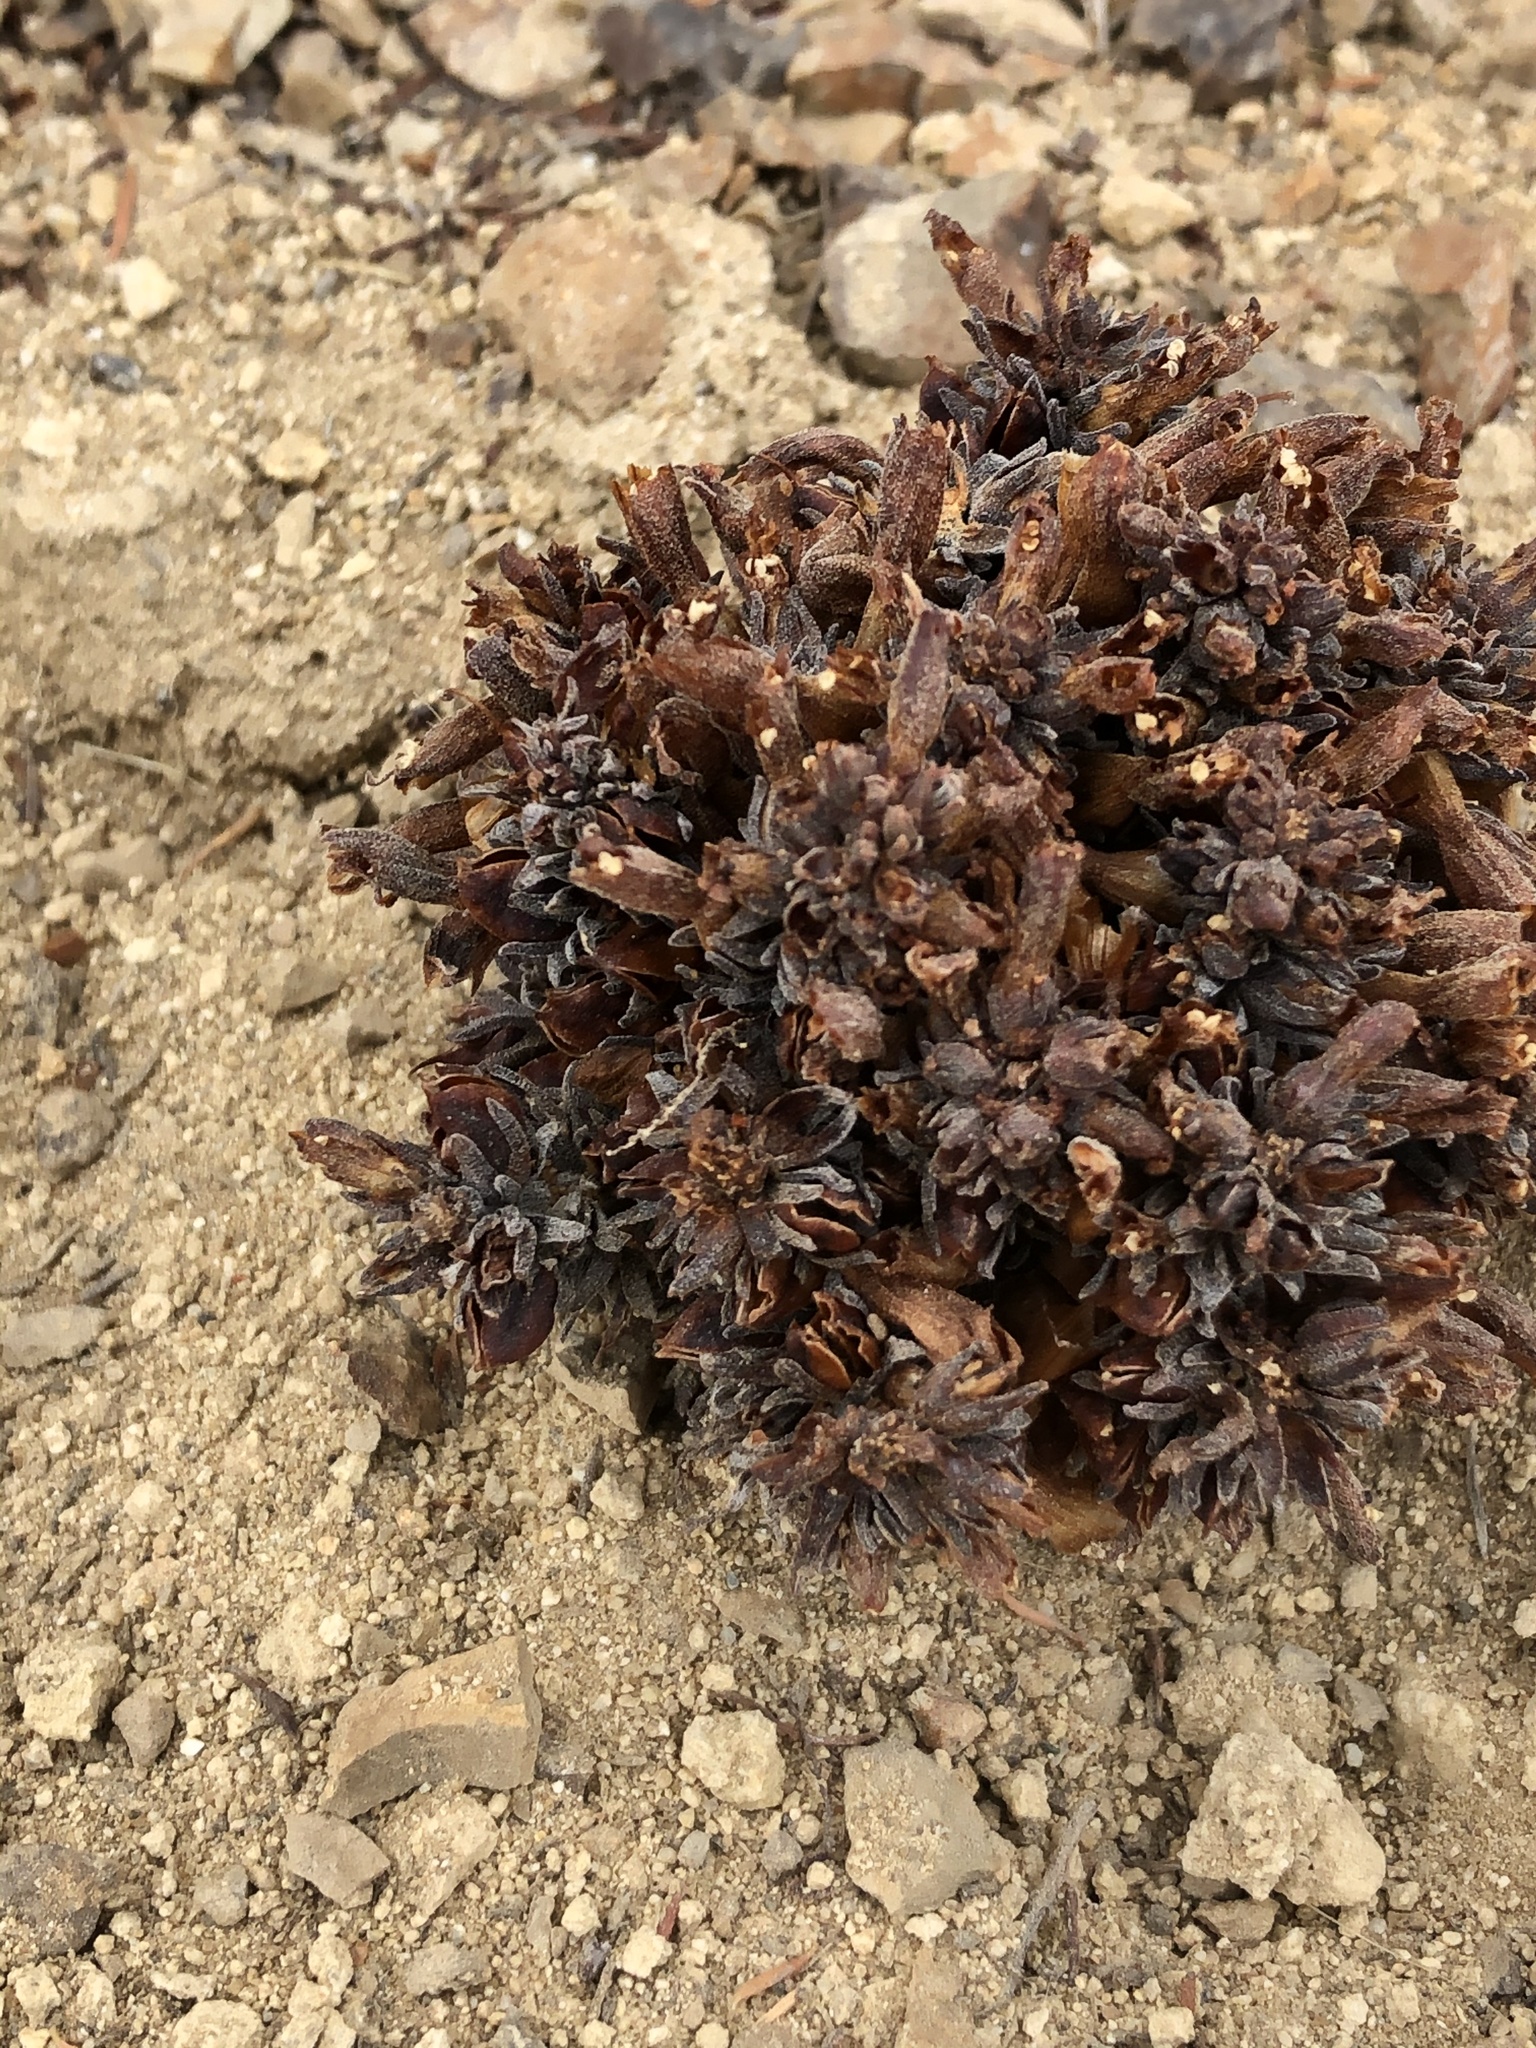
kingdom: Plantae
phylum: Tracheophyta
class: Magnoliopsida
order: Lamiales
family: Orobanchaceae
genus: Aphyllon
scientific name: Aphyllon tuberosum
